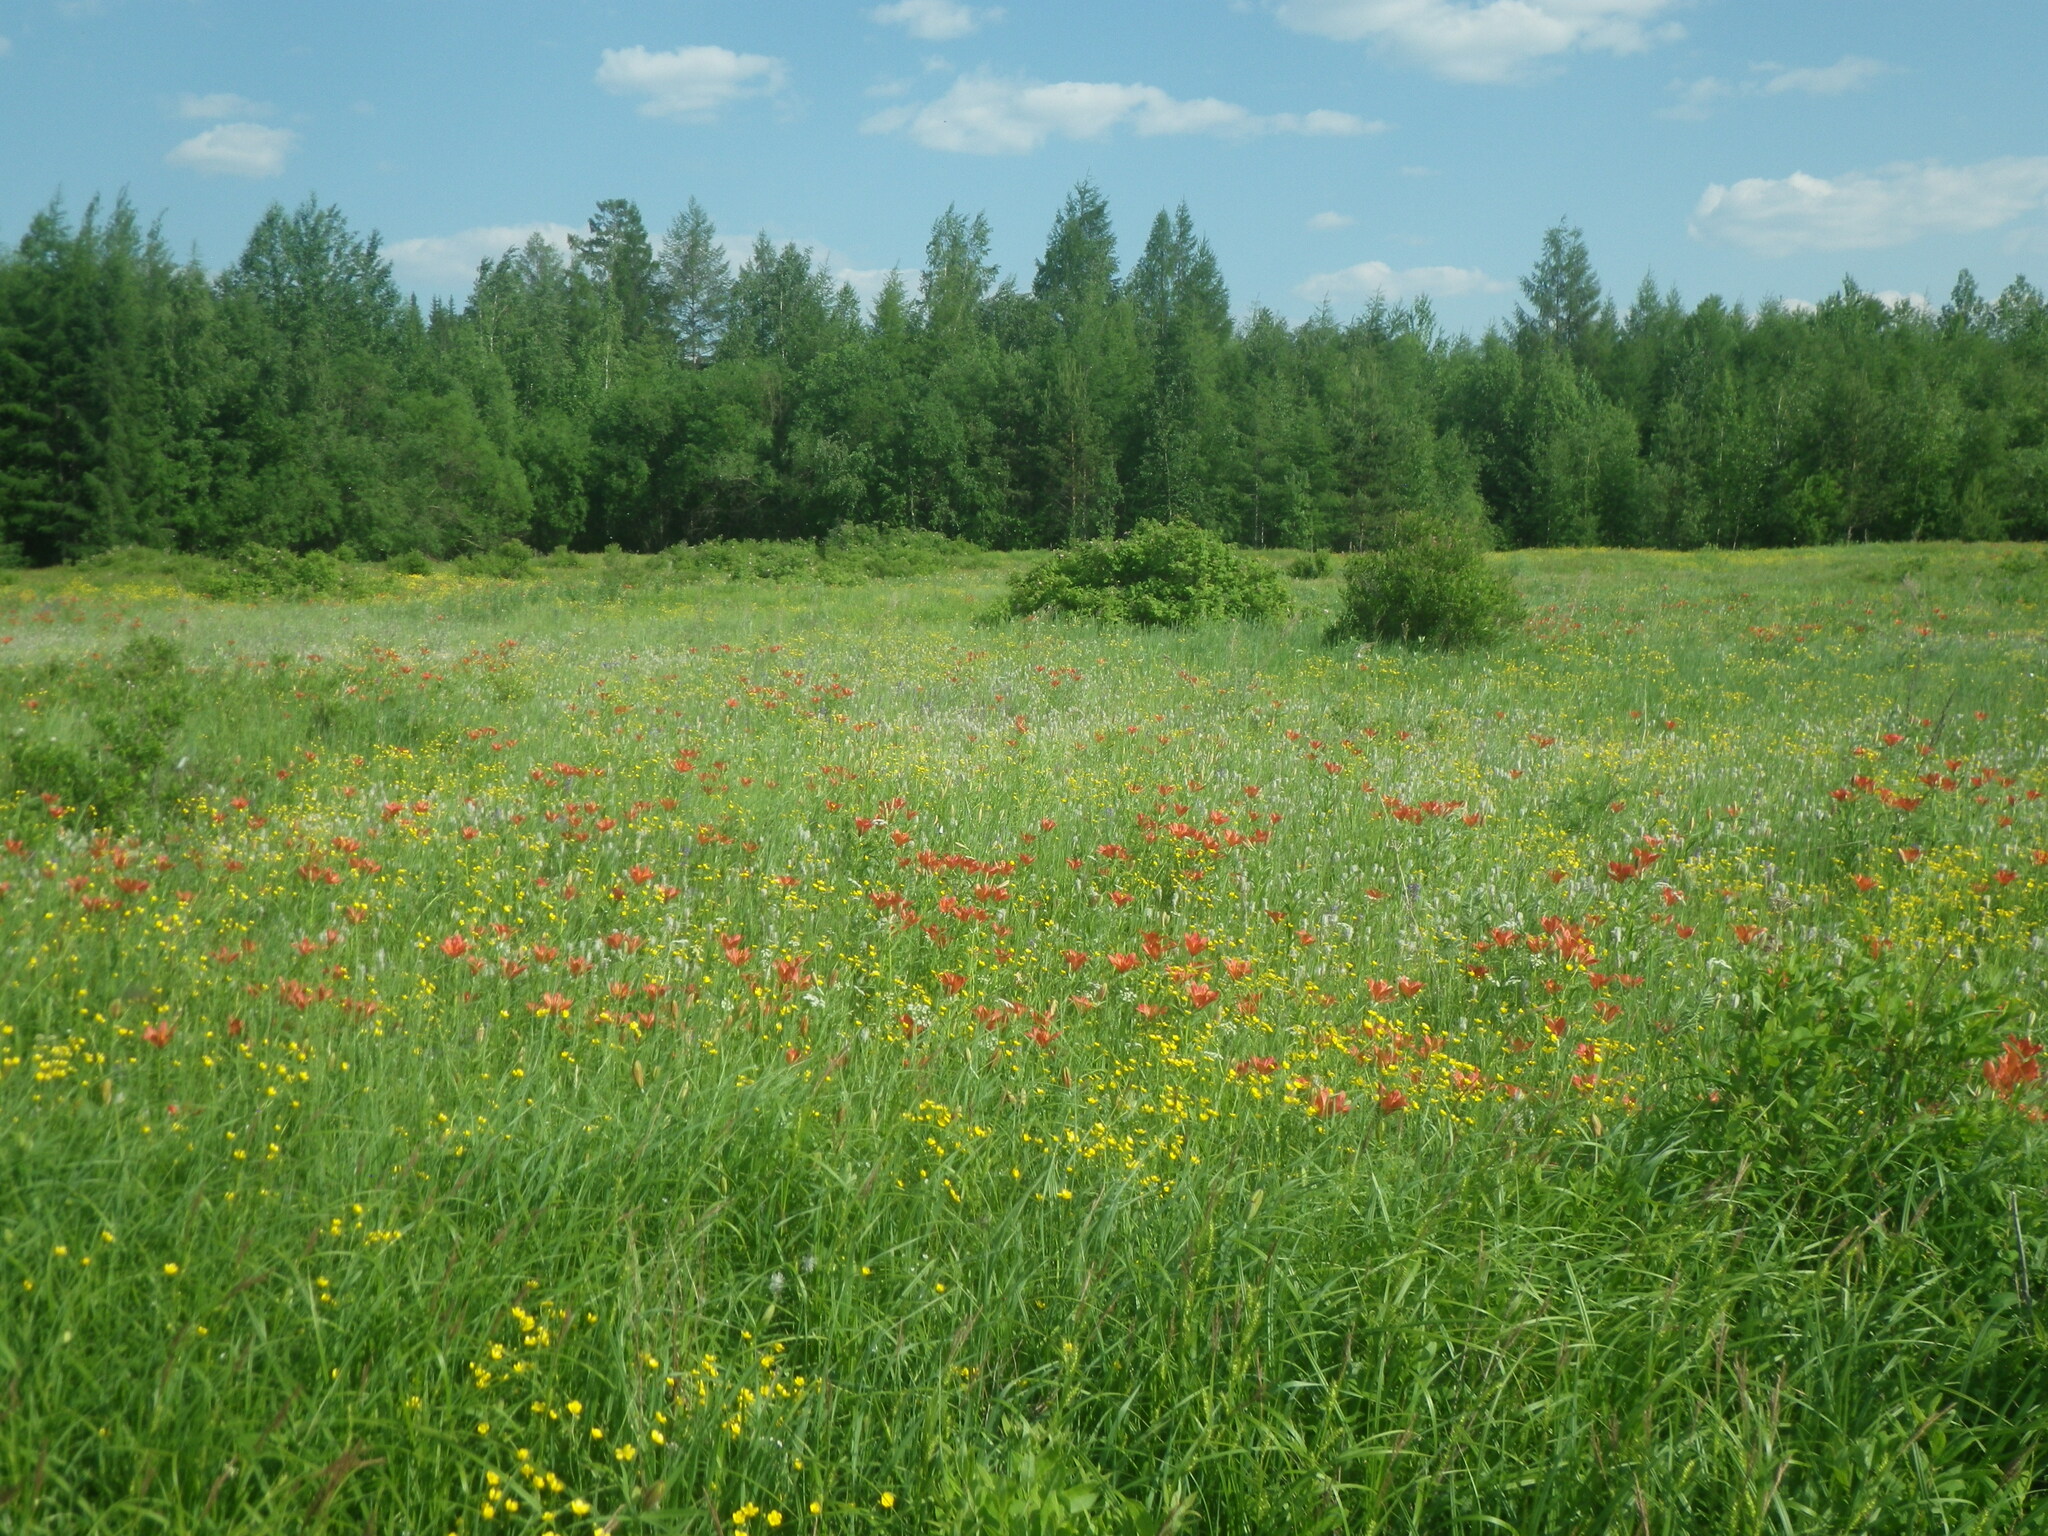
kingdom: Plantae
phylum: Tracheophyta
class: Liliopsida
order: Liliales
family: Liliaceae
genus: Lilium
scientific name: Lilium pensylvanicum
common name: Candlestick lily
